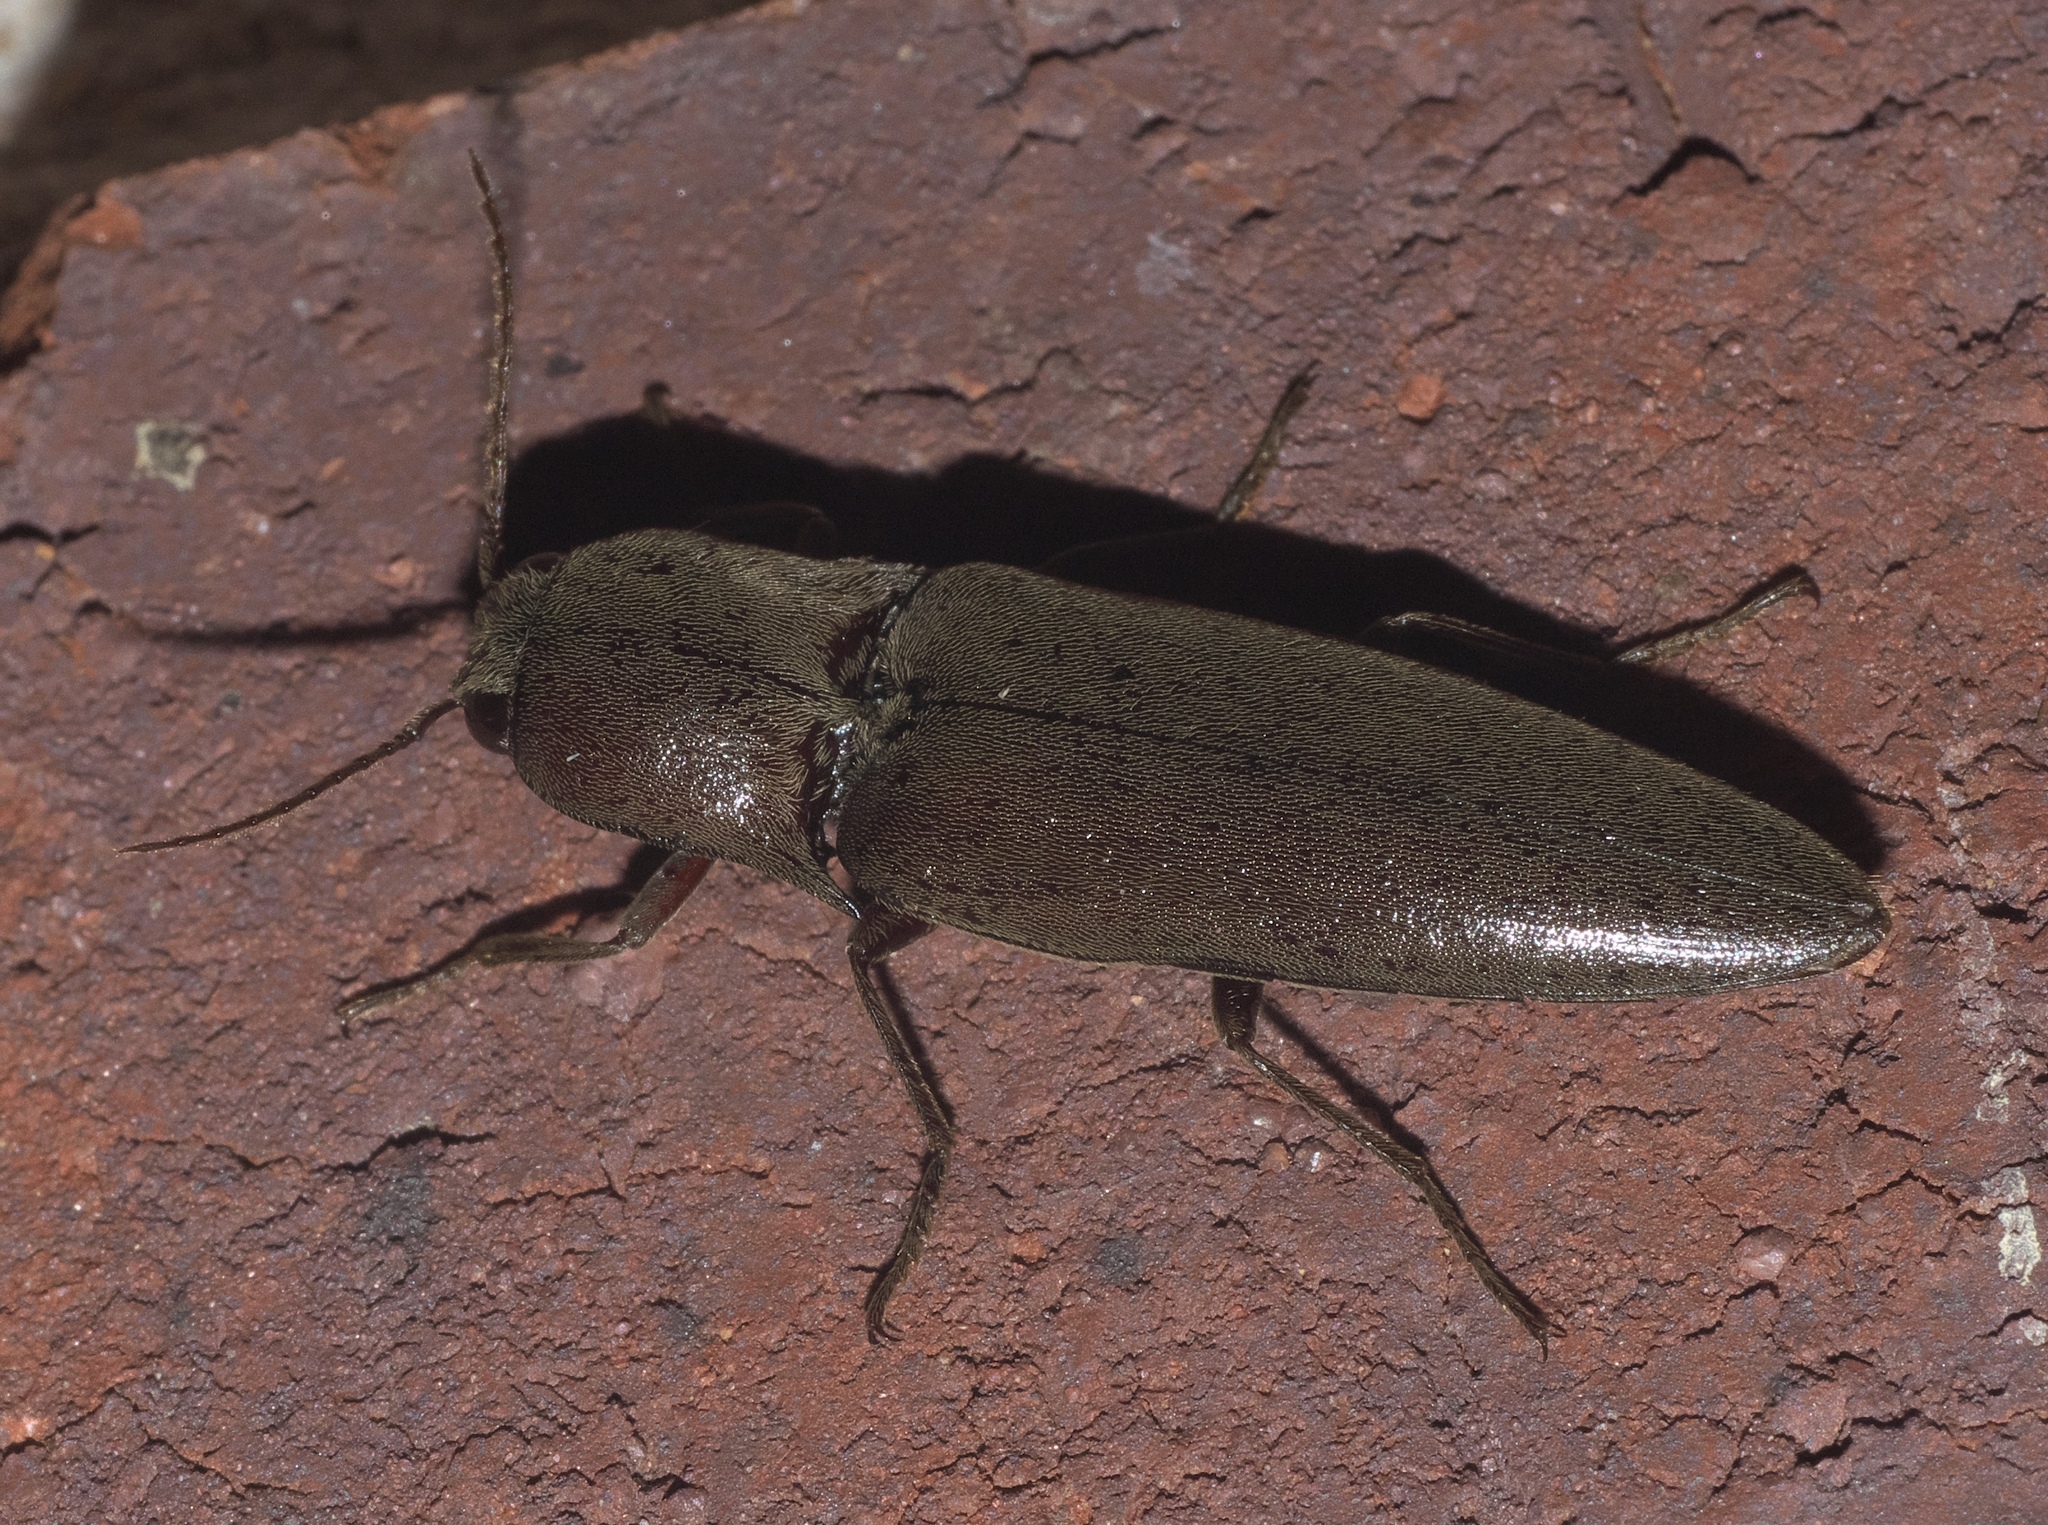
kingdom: Animalia
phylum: Arthropoda
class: Insecta
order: Coleoptera
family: Elateridae
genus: Orthostethus
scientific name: Orthostethus infuscatus
